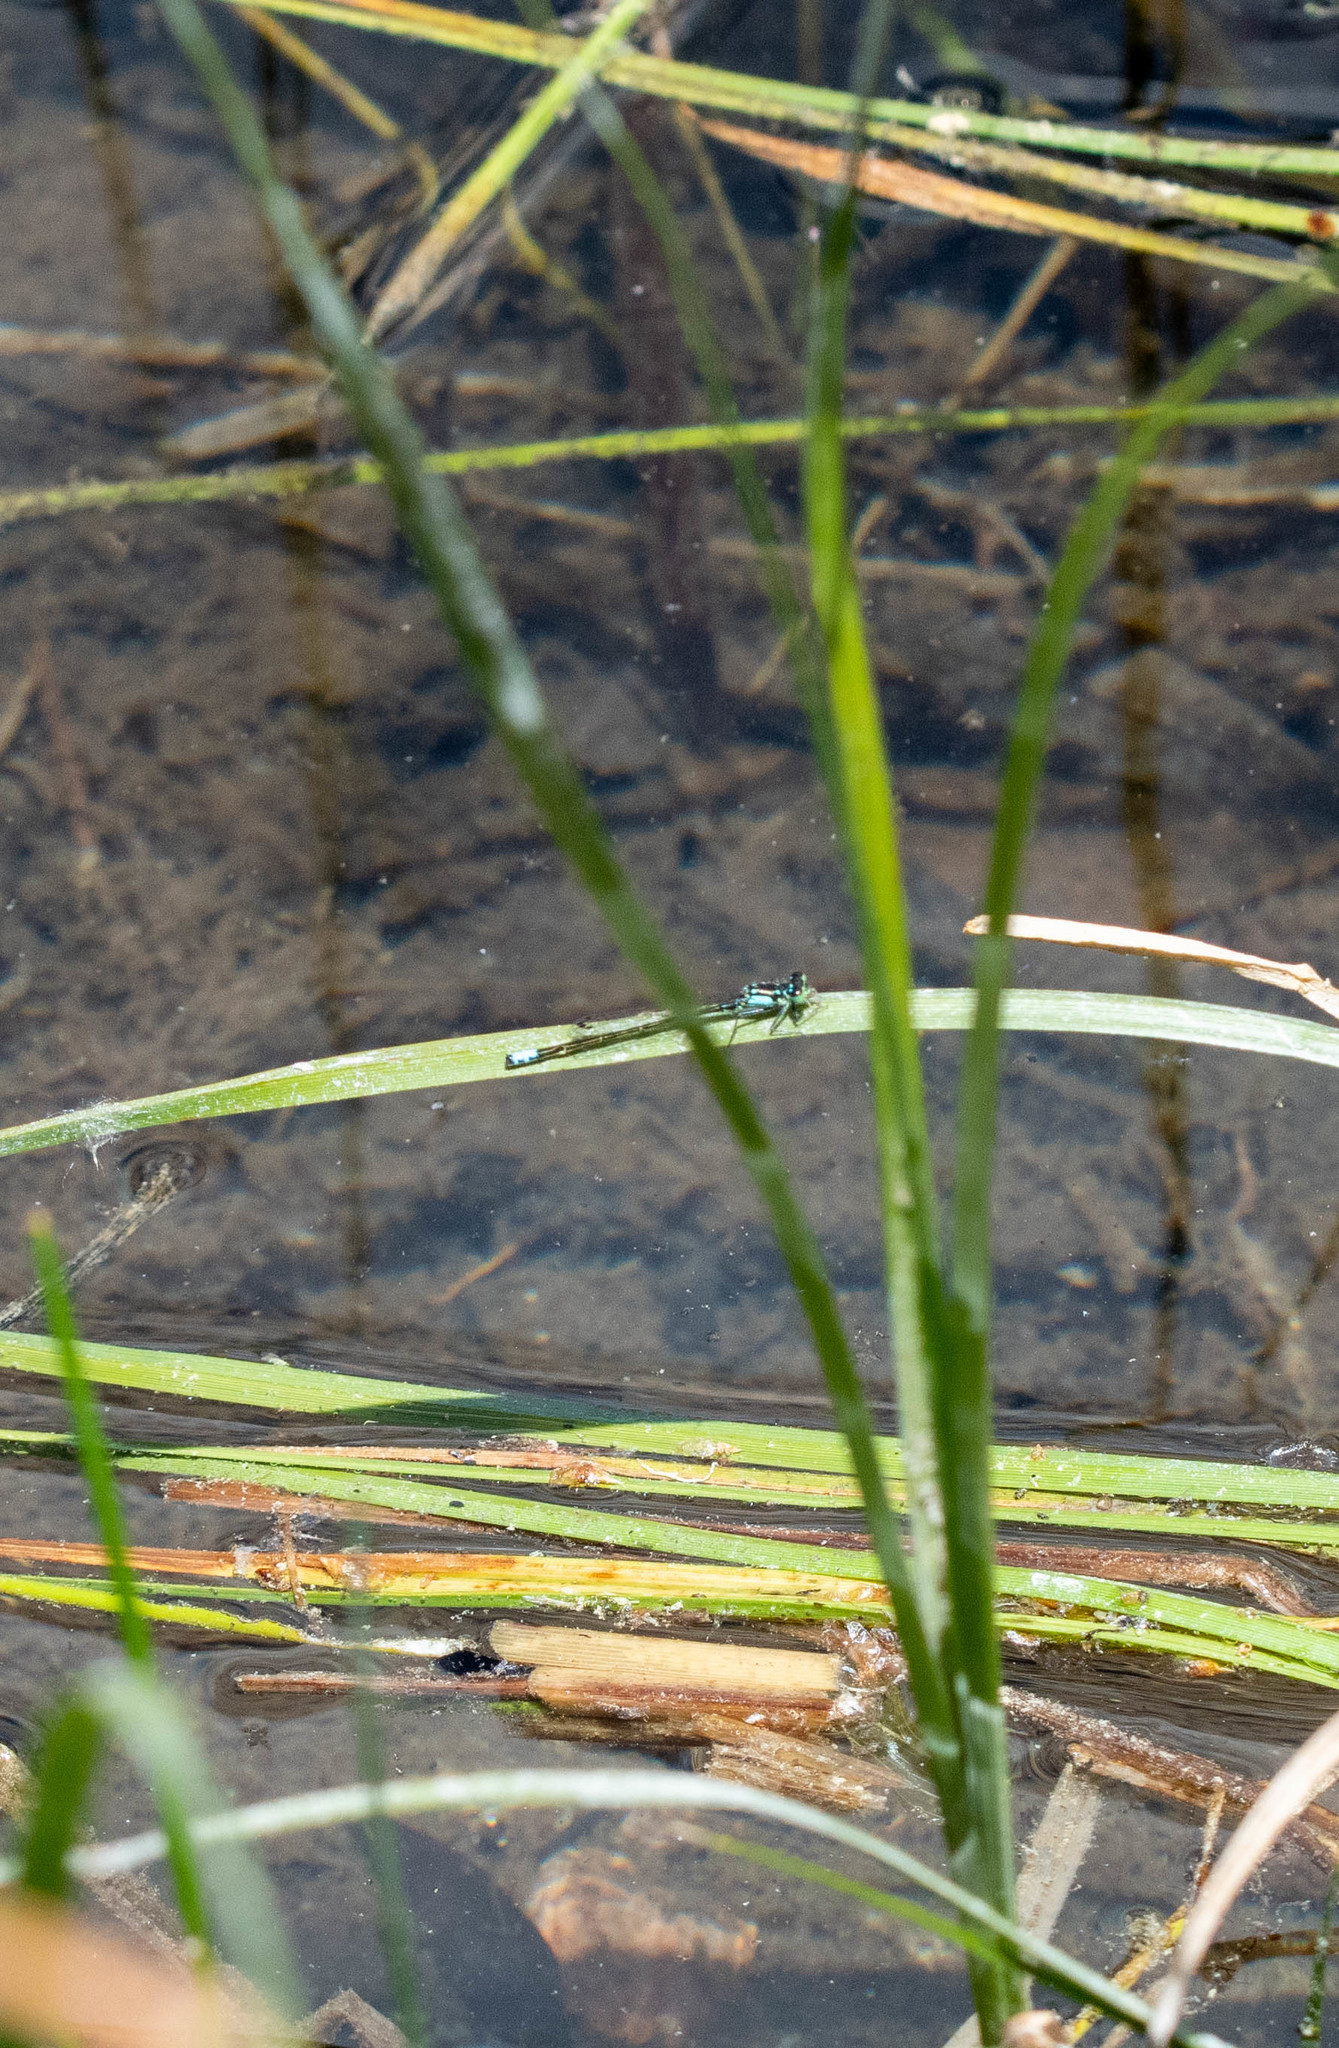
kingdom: Animalia
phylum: Arthropoda
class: Insecta
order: Odonata
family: Coenagrionidae
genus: Ischnura
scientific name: Ischnura cervula
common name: Pacific forktail
